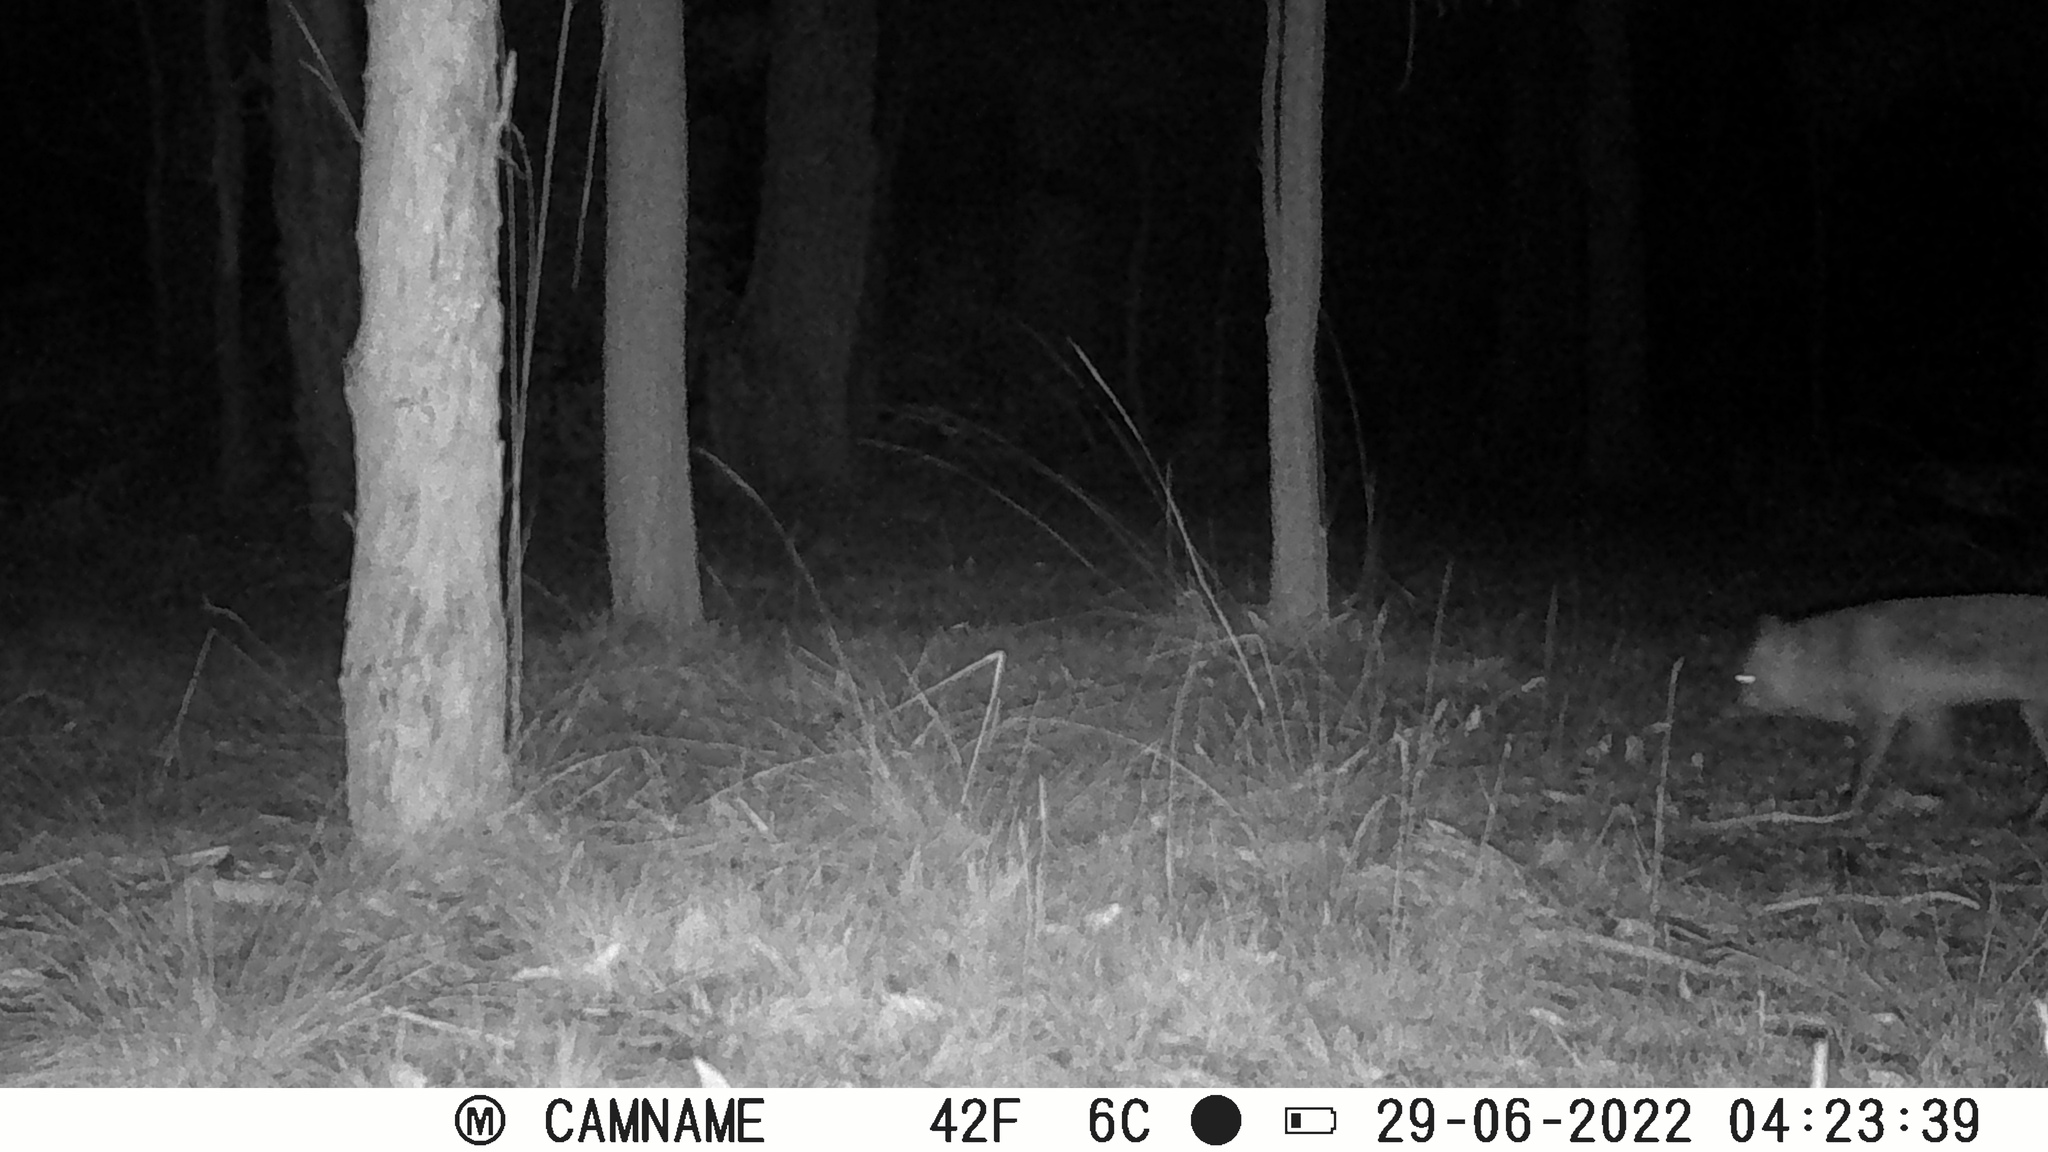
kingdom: Animalia
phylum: Chordata
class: Mammalia
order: Carnivora
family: Canidae
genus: Vulpes
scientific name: Vulpes vulpes
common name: Red fox
